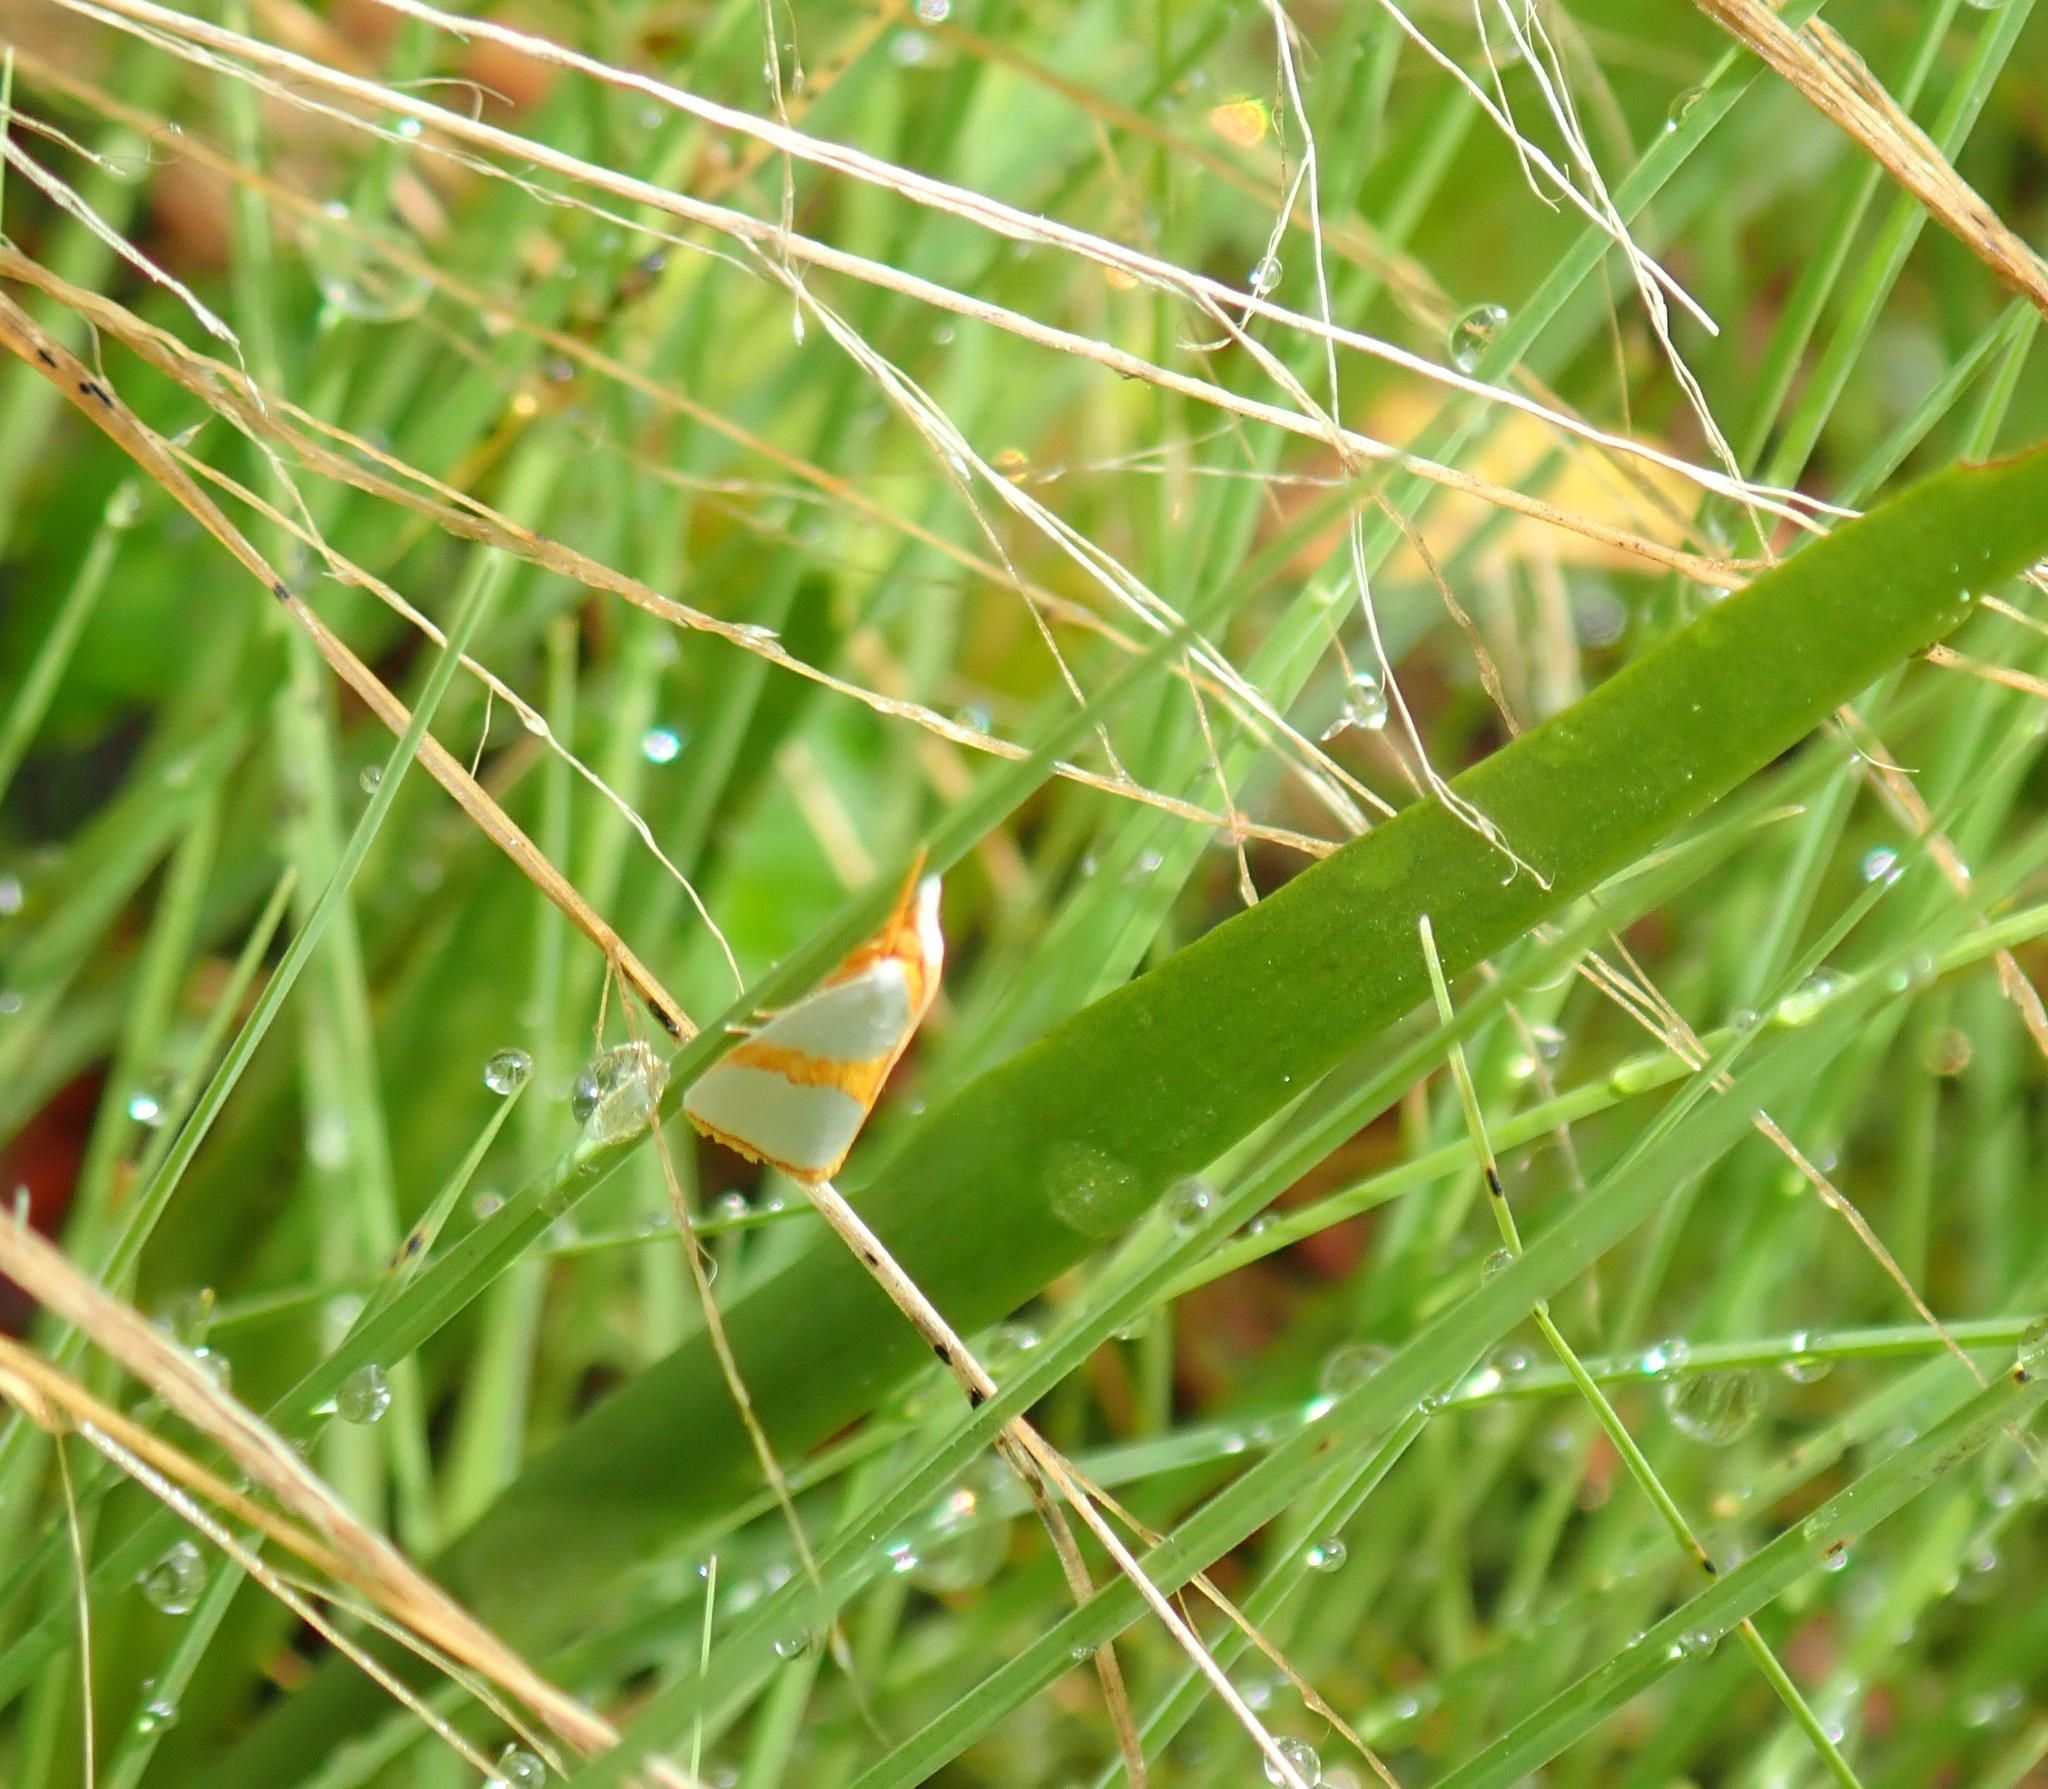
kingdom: Animalia
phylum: Arthropoda
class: Insecta
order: Lepidoptera
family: Crambidae
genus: Argyria
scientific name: Argyria auratella
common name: Curve-lined argyria moth
